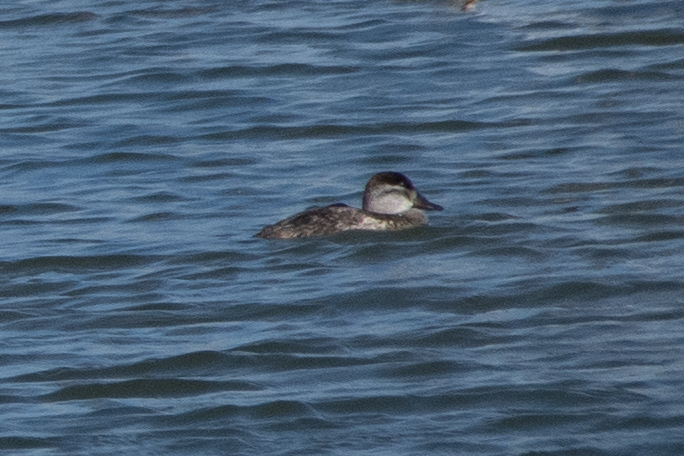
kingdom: Animalia
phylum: Chordata
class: Aves
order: Anseriformes
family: Anatidae
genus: Oxyura
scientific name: Oxyura jamaicensis
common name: Ruddy duck
